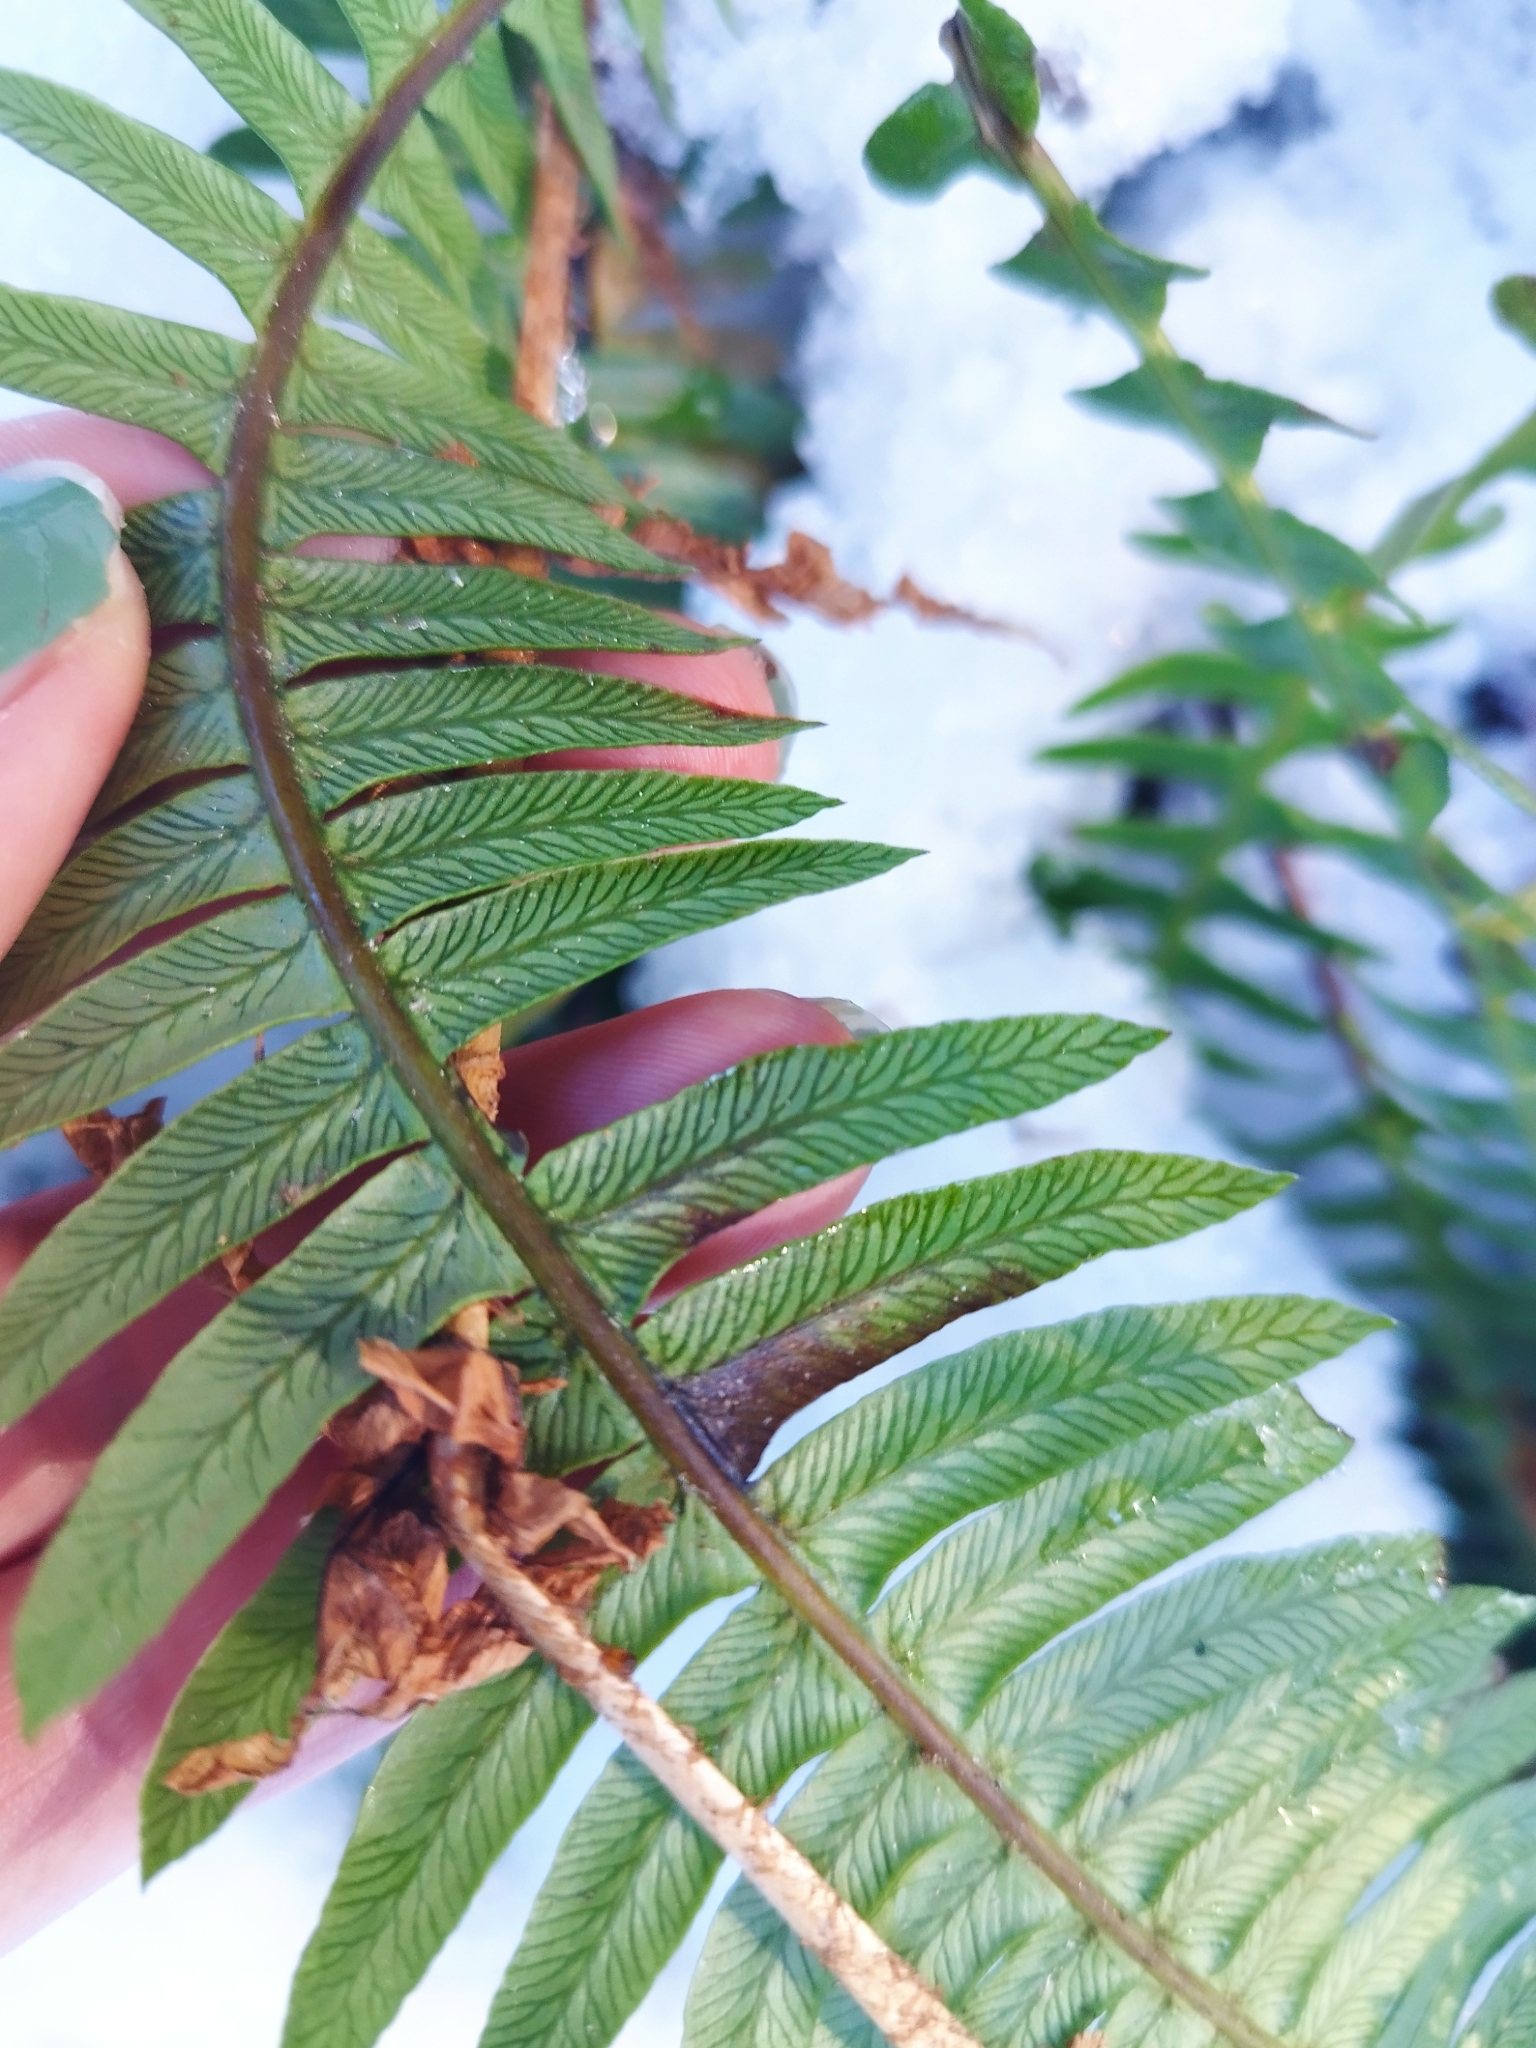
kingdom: Plantae
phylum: Tracheophyta
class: Polypodiopsida
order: Polypodiales
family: Blechnaceae
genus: Struthiopteris
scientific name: Struthiopteris spicant
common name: Deer fern
